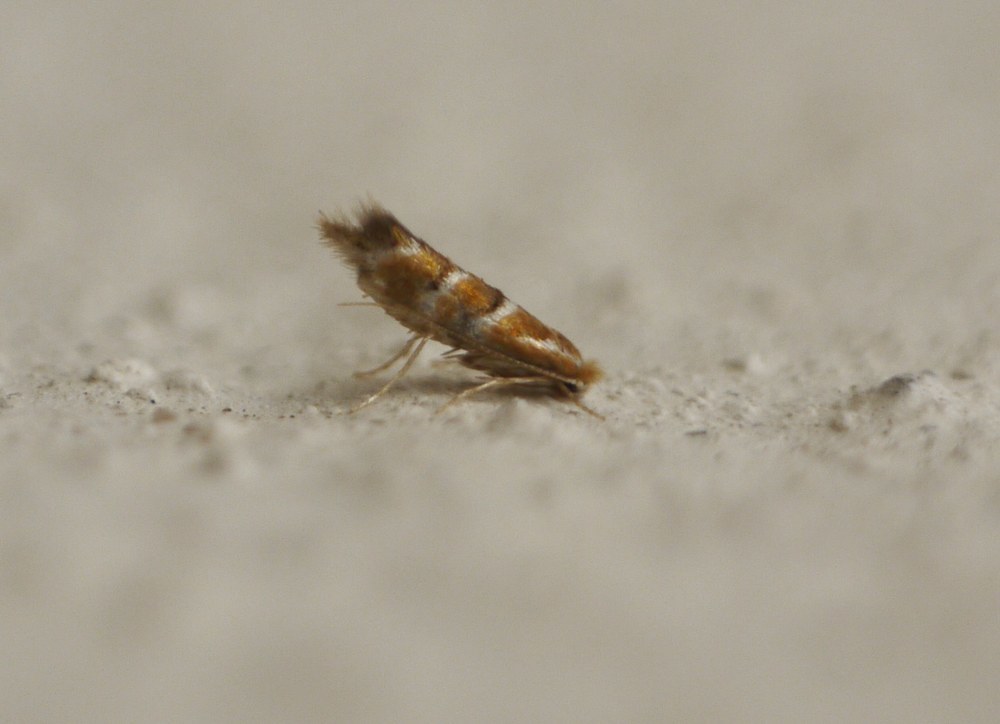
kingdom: Animalia
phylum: Arthropoda
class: Insecta
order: Lepidoptera
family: Gracillariidae
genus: Cameraria
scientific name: Cameraria ohridella
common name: Horse-chestnut leaf-miner
